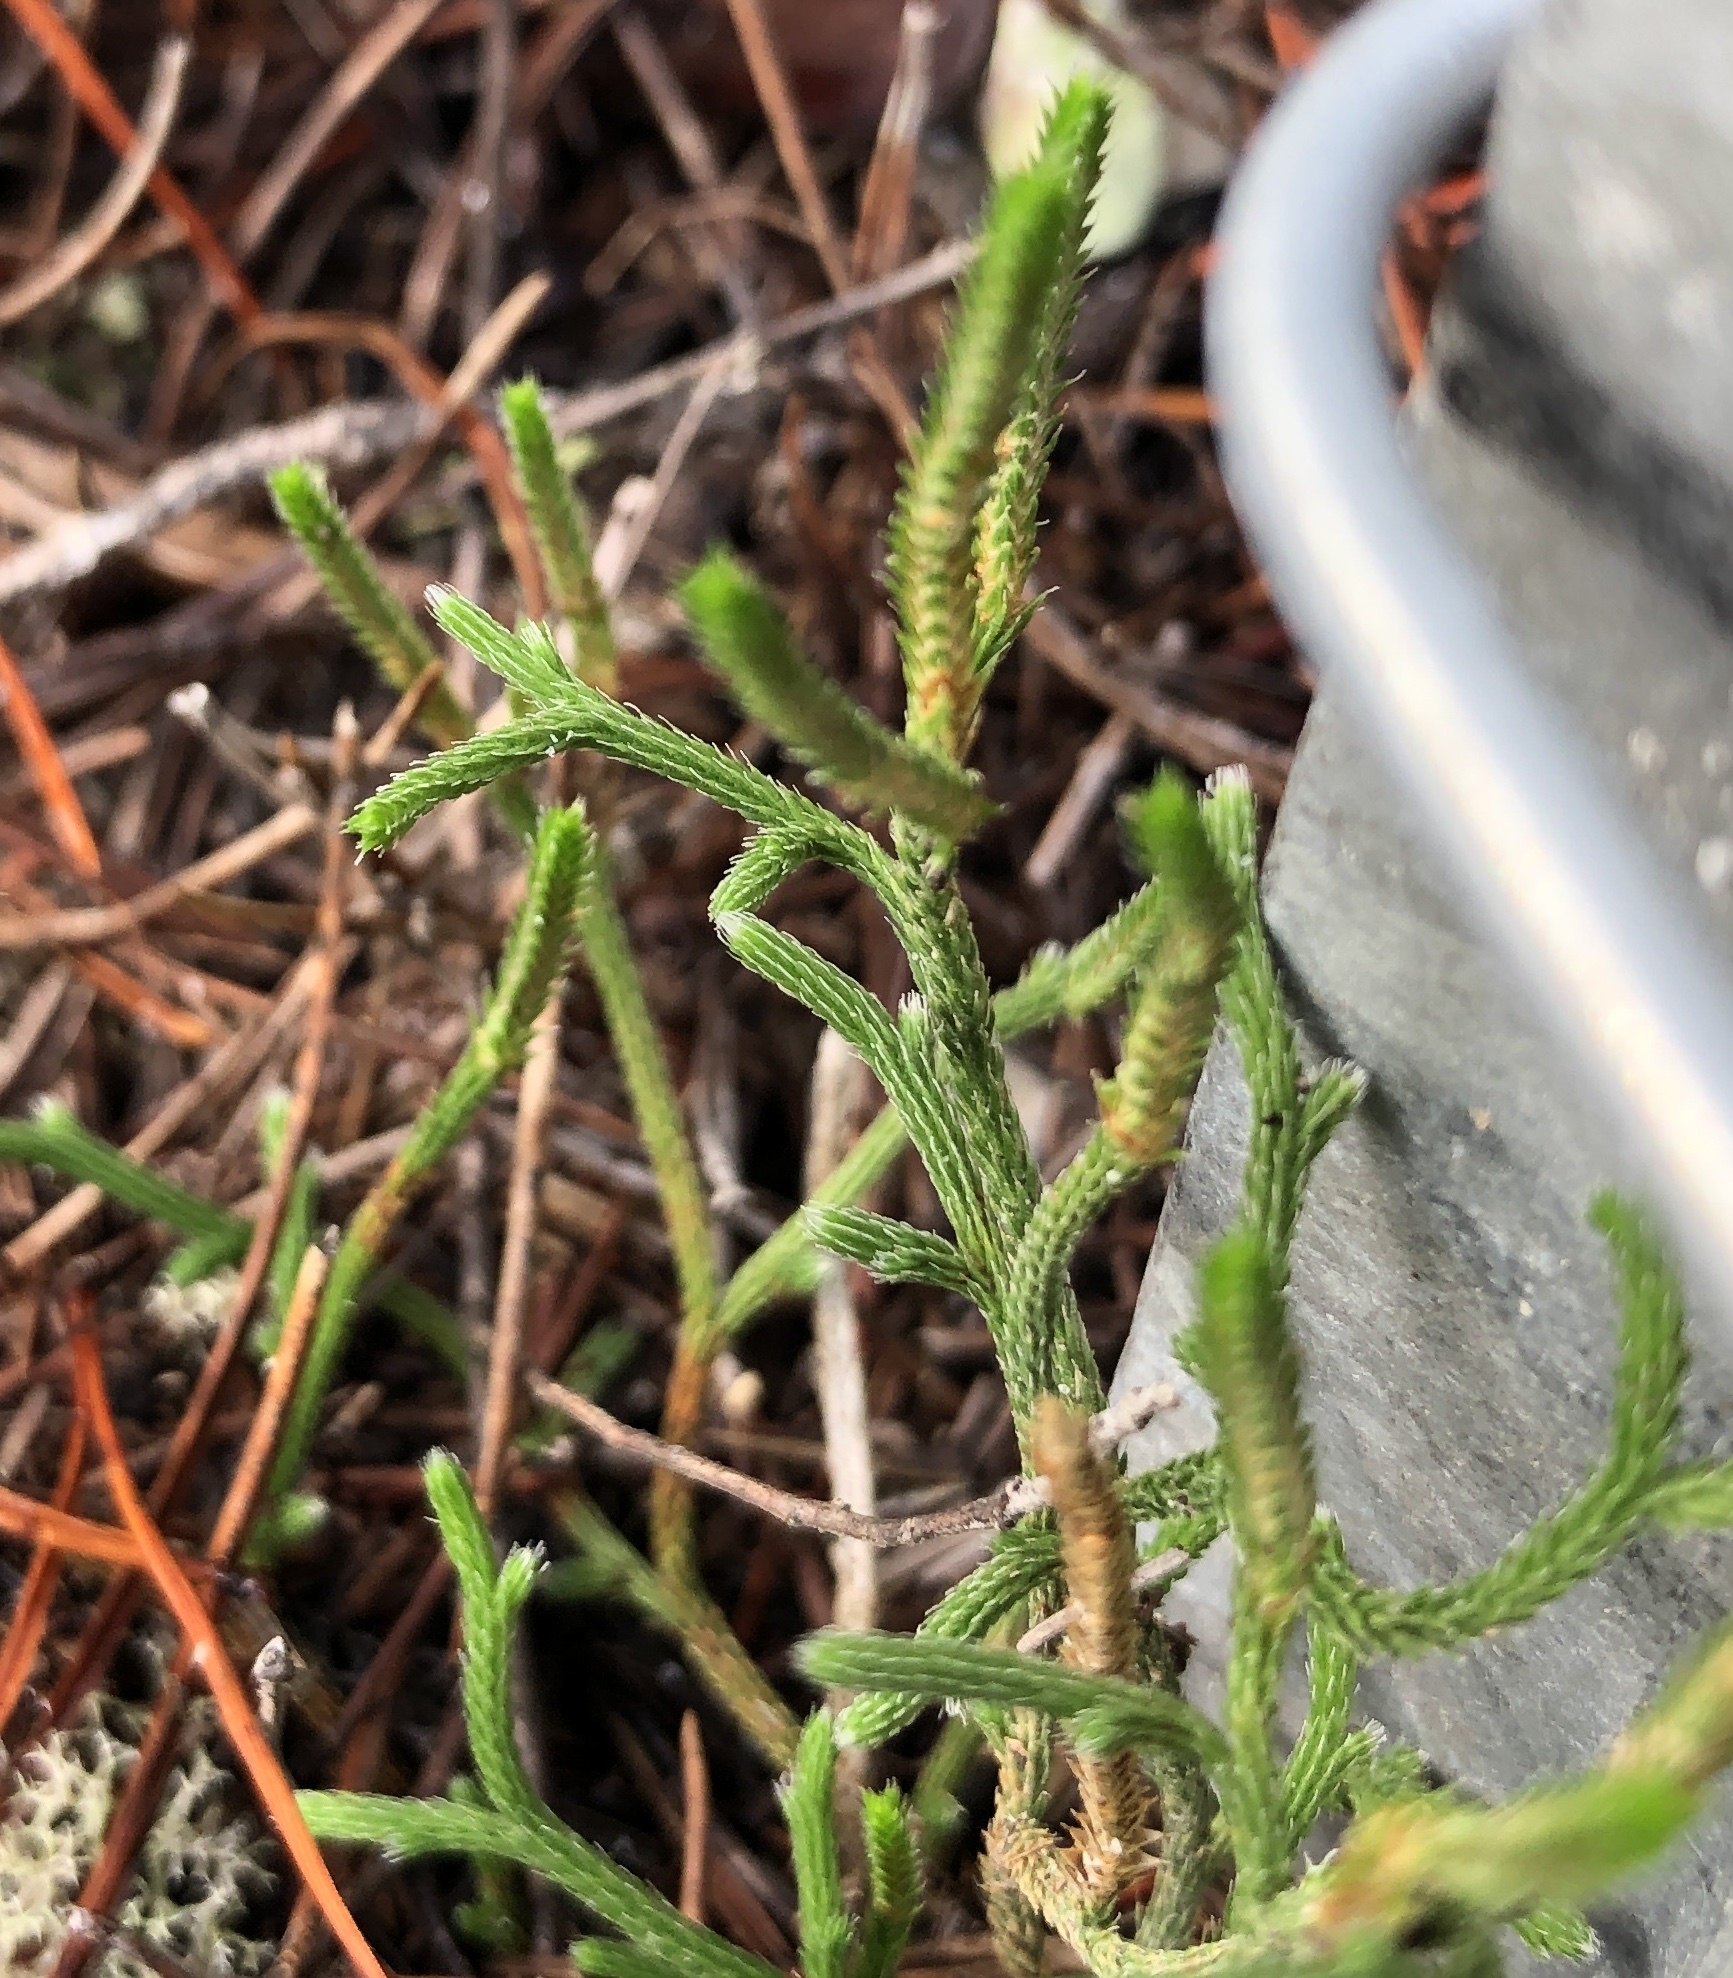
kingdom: Plantae
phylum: Tracheophyta
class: Lycopodiopsida
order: Selaginellales
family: Selaginellaceae
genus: Selaginella
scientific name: Selaginella arenicola
